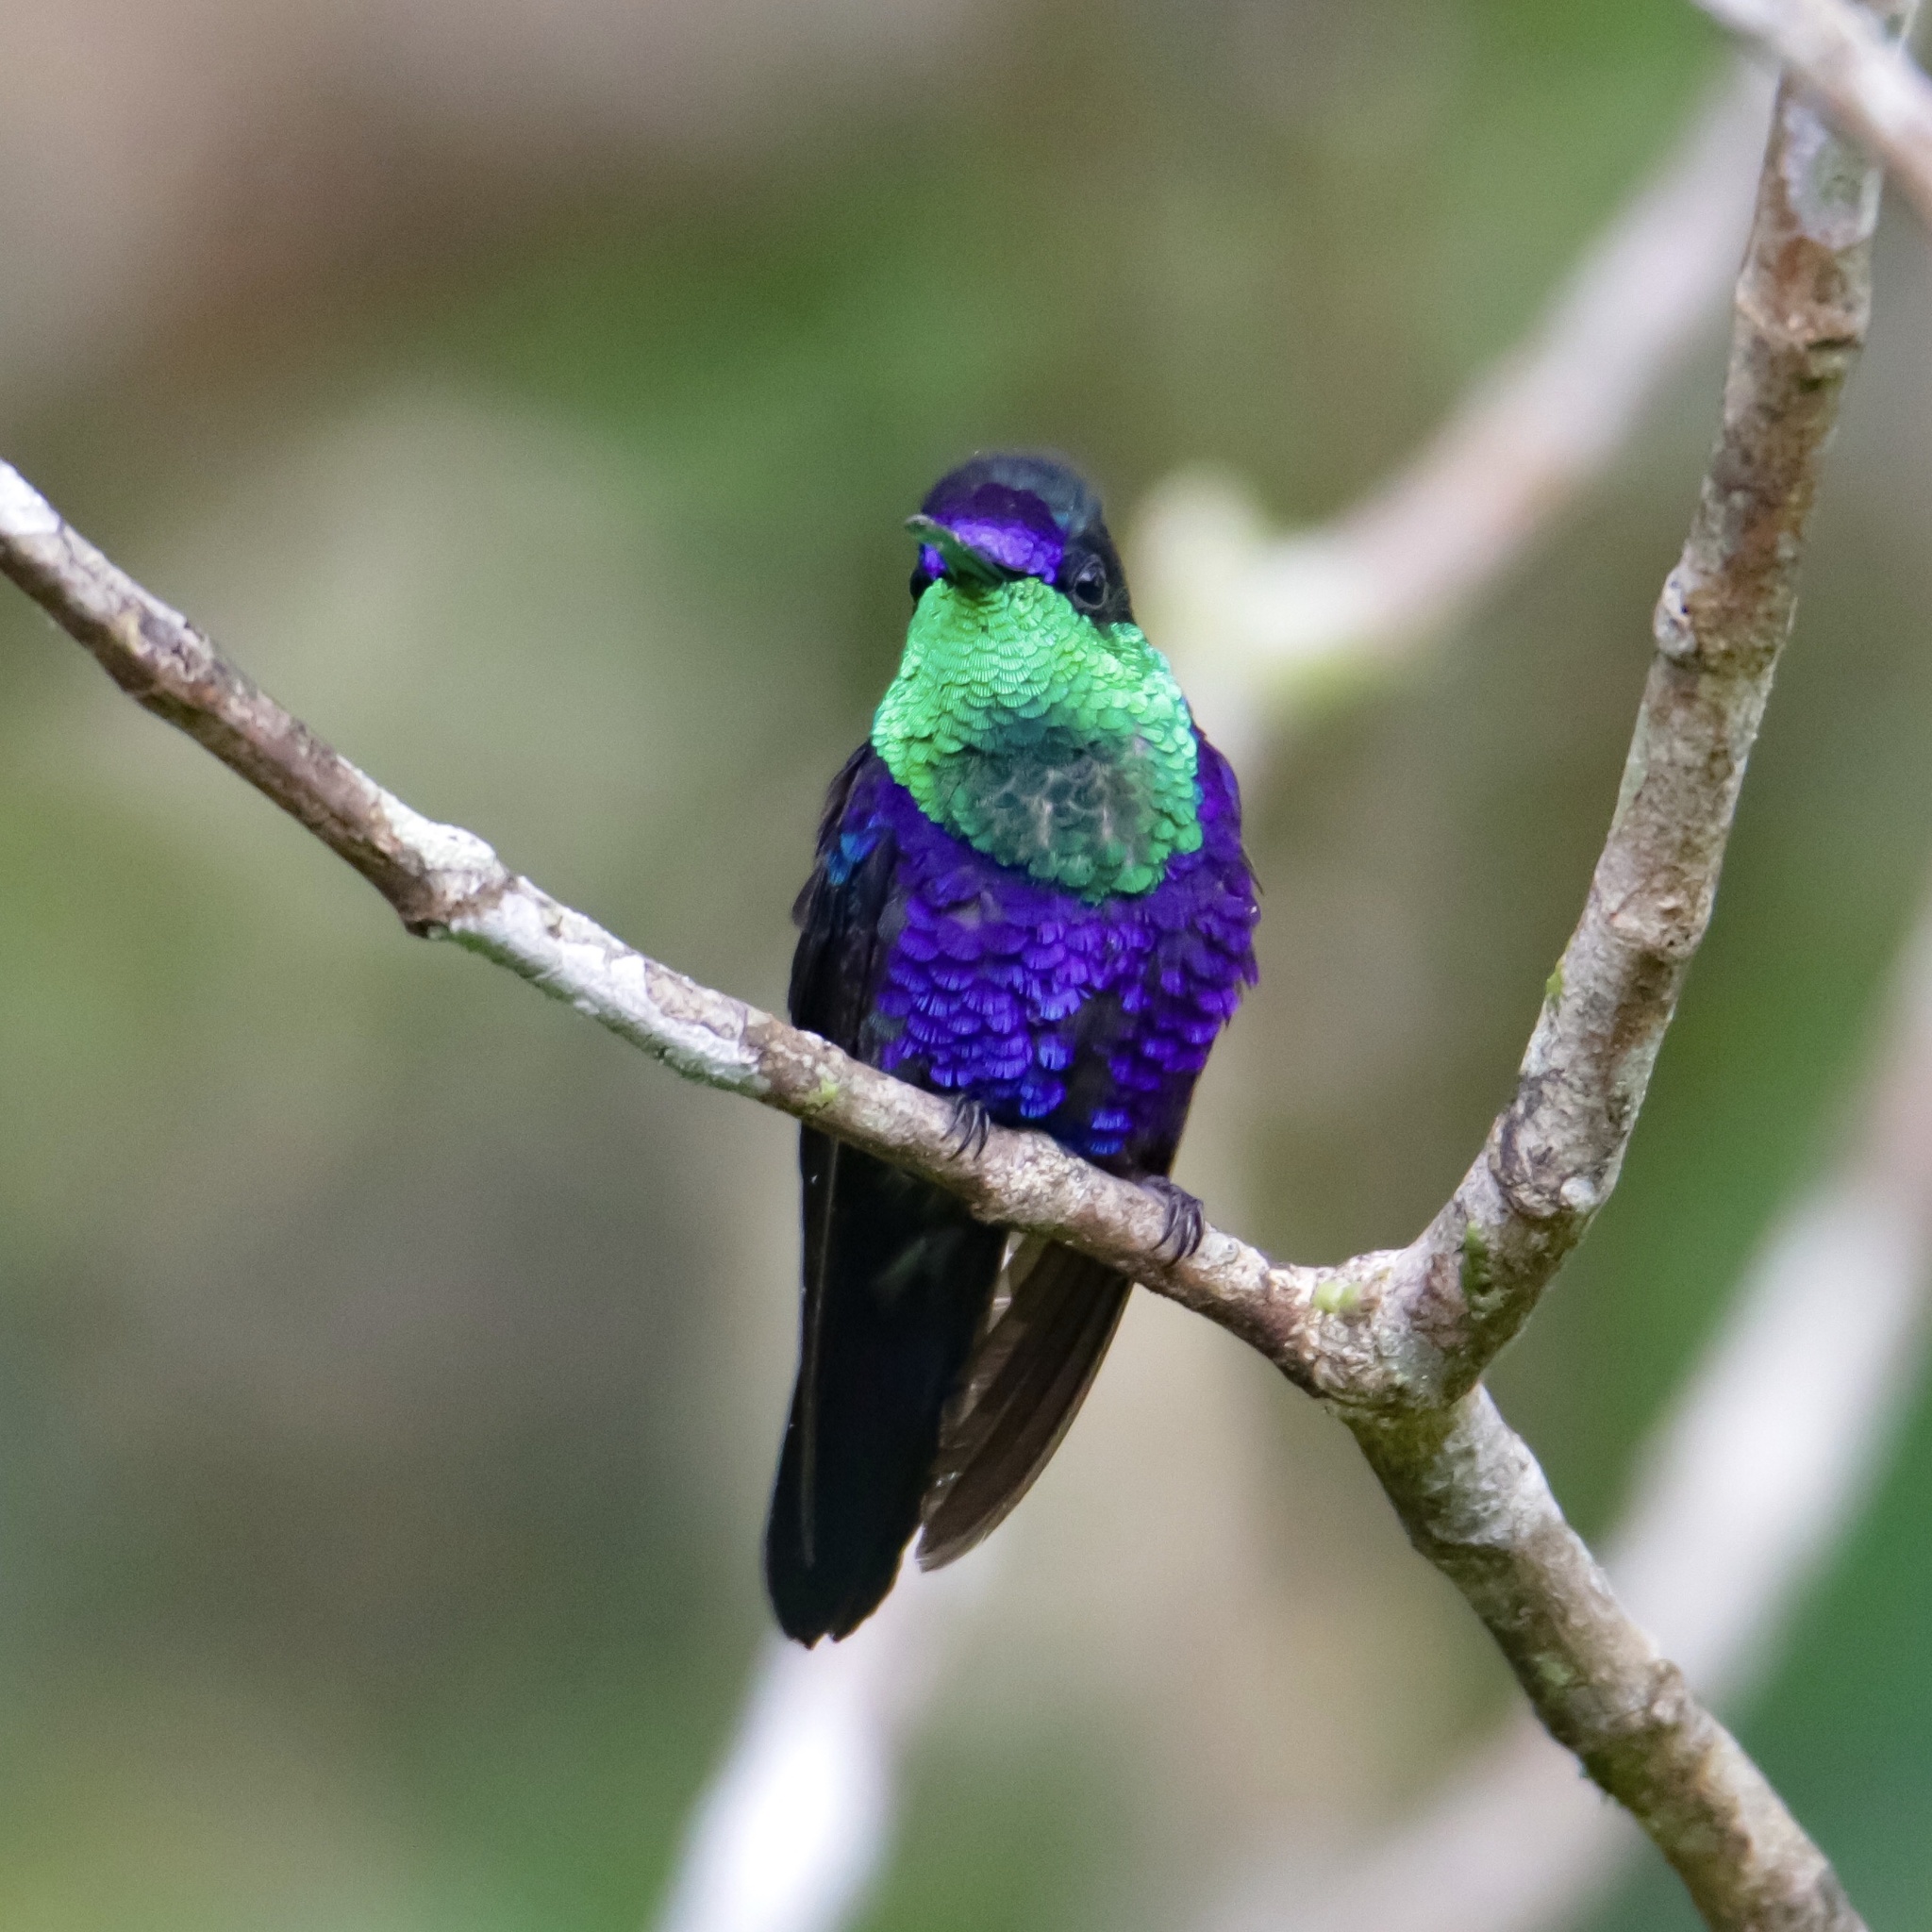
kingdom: Animalia
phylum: Chordata
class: Aves
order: Apodiformes
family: Trochilidae
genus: Thalurania
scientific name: Thalurania colombica
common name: Crowned woodnymph
